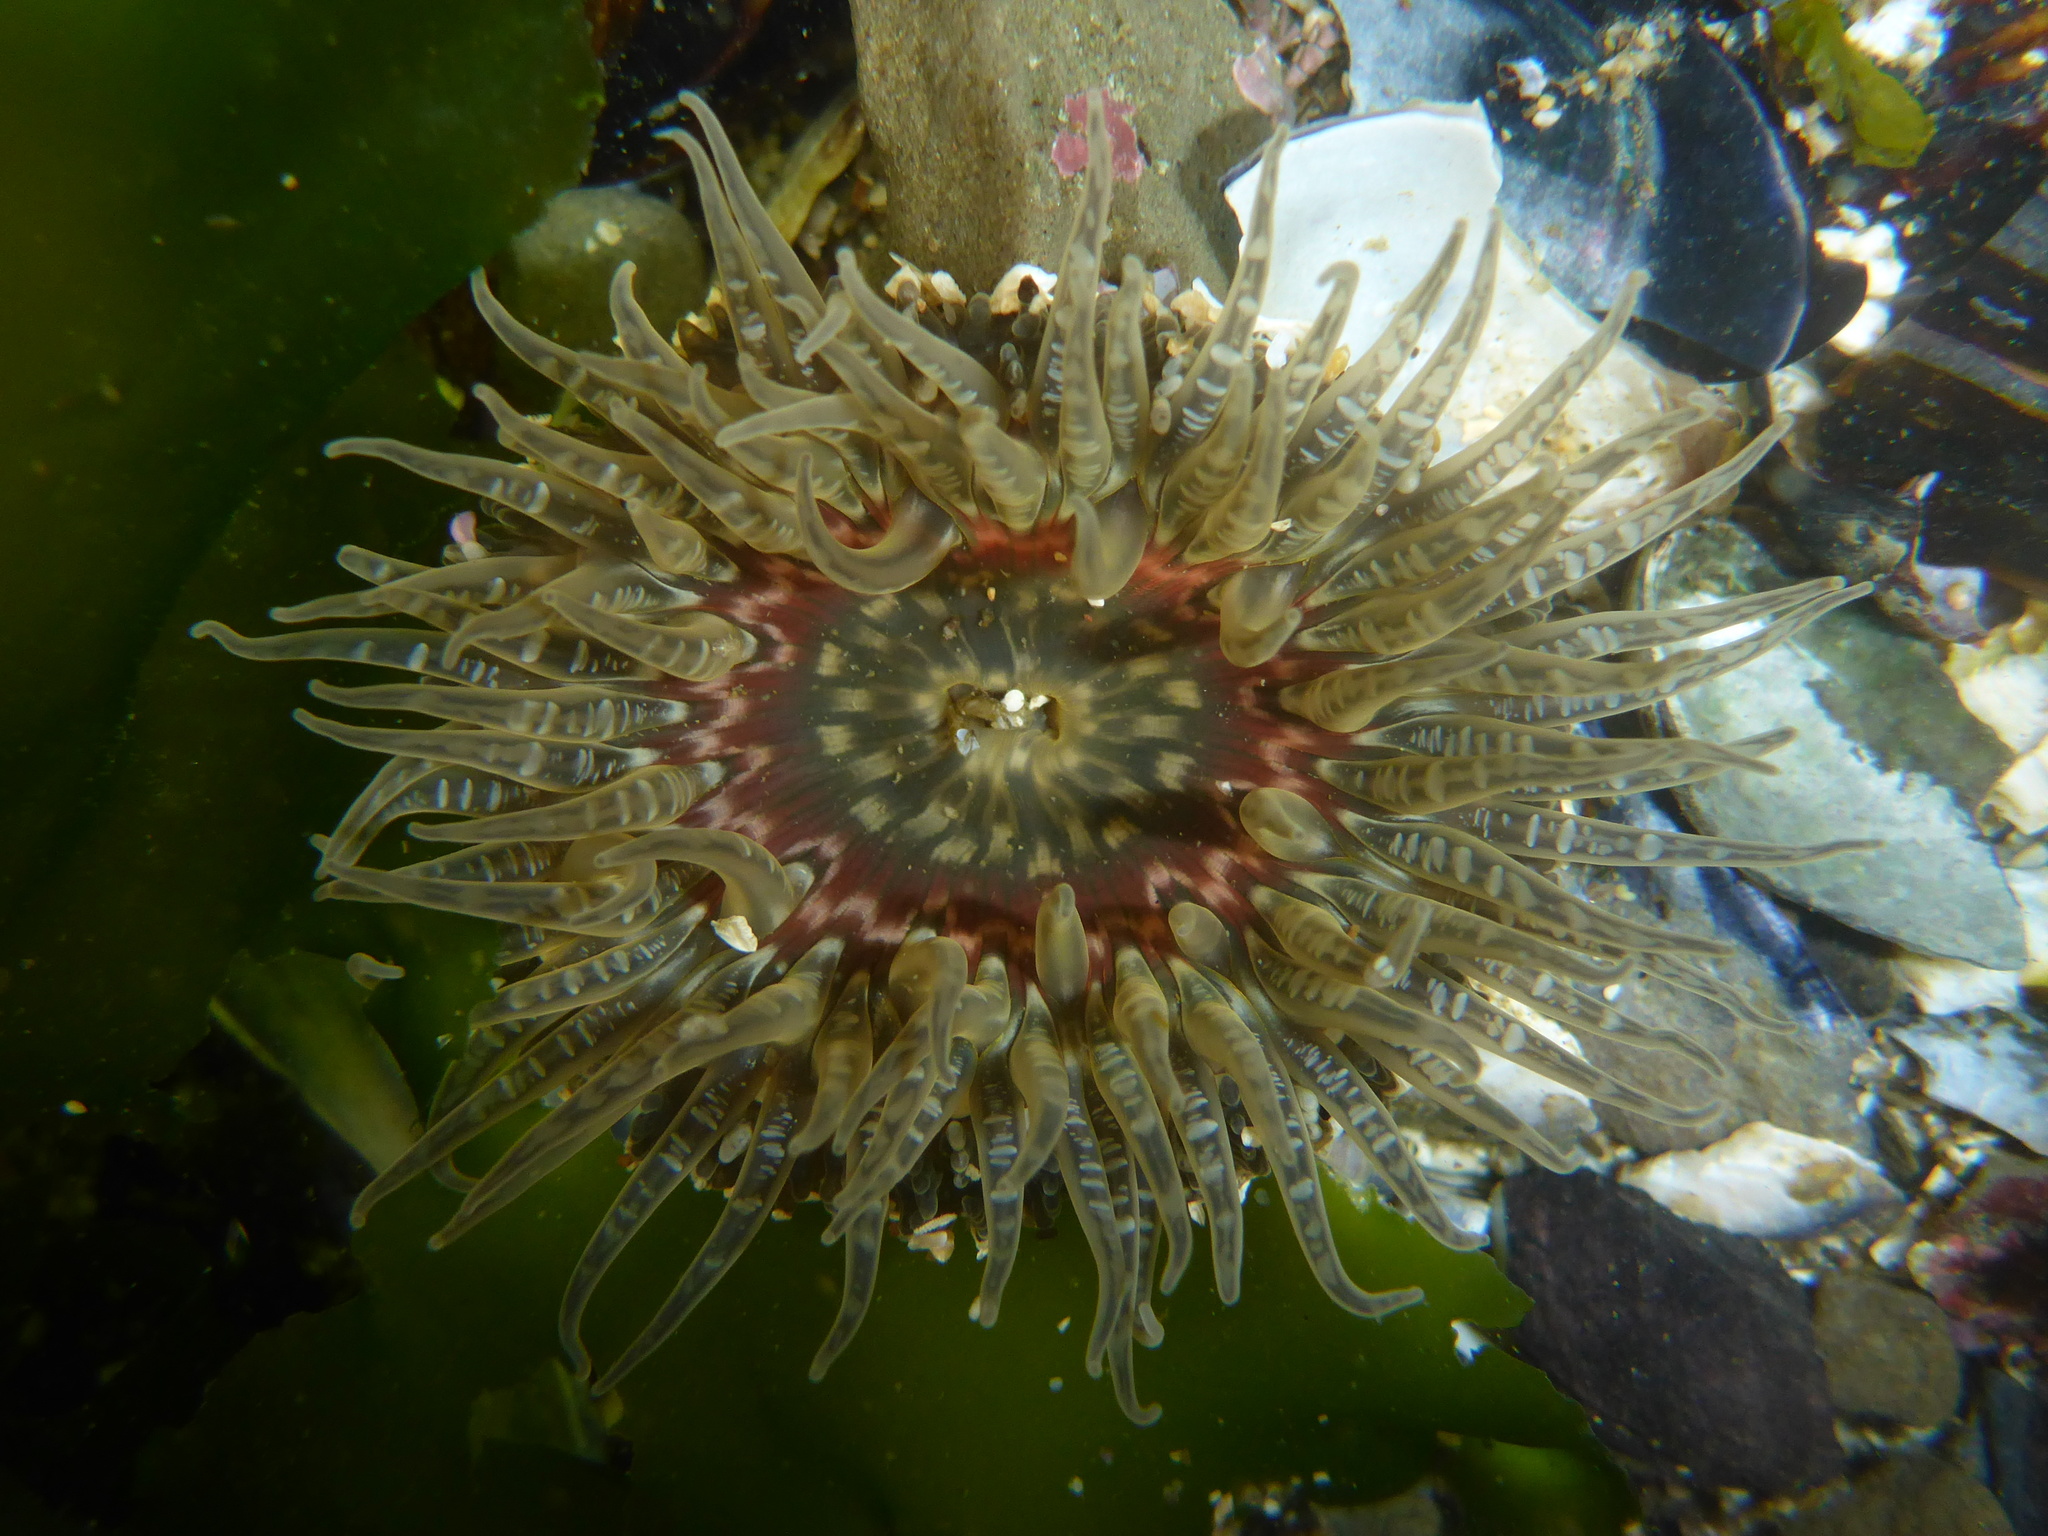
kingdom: Animalia
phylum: Cnidaria
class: Anthozoa
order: Actiniaria
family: Actiniidae
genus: Anthopleura
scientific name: Anthopleura artemisia
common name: Buried sea anemone
